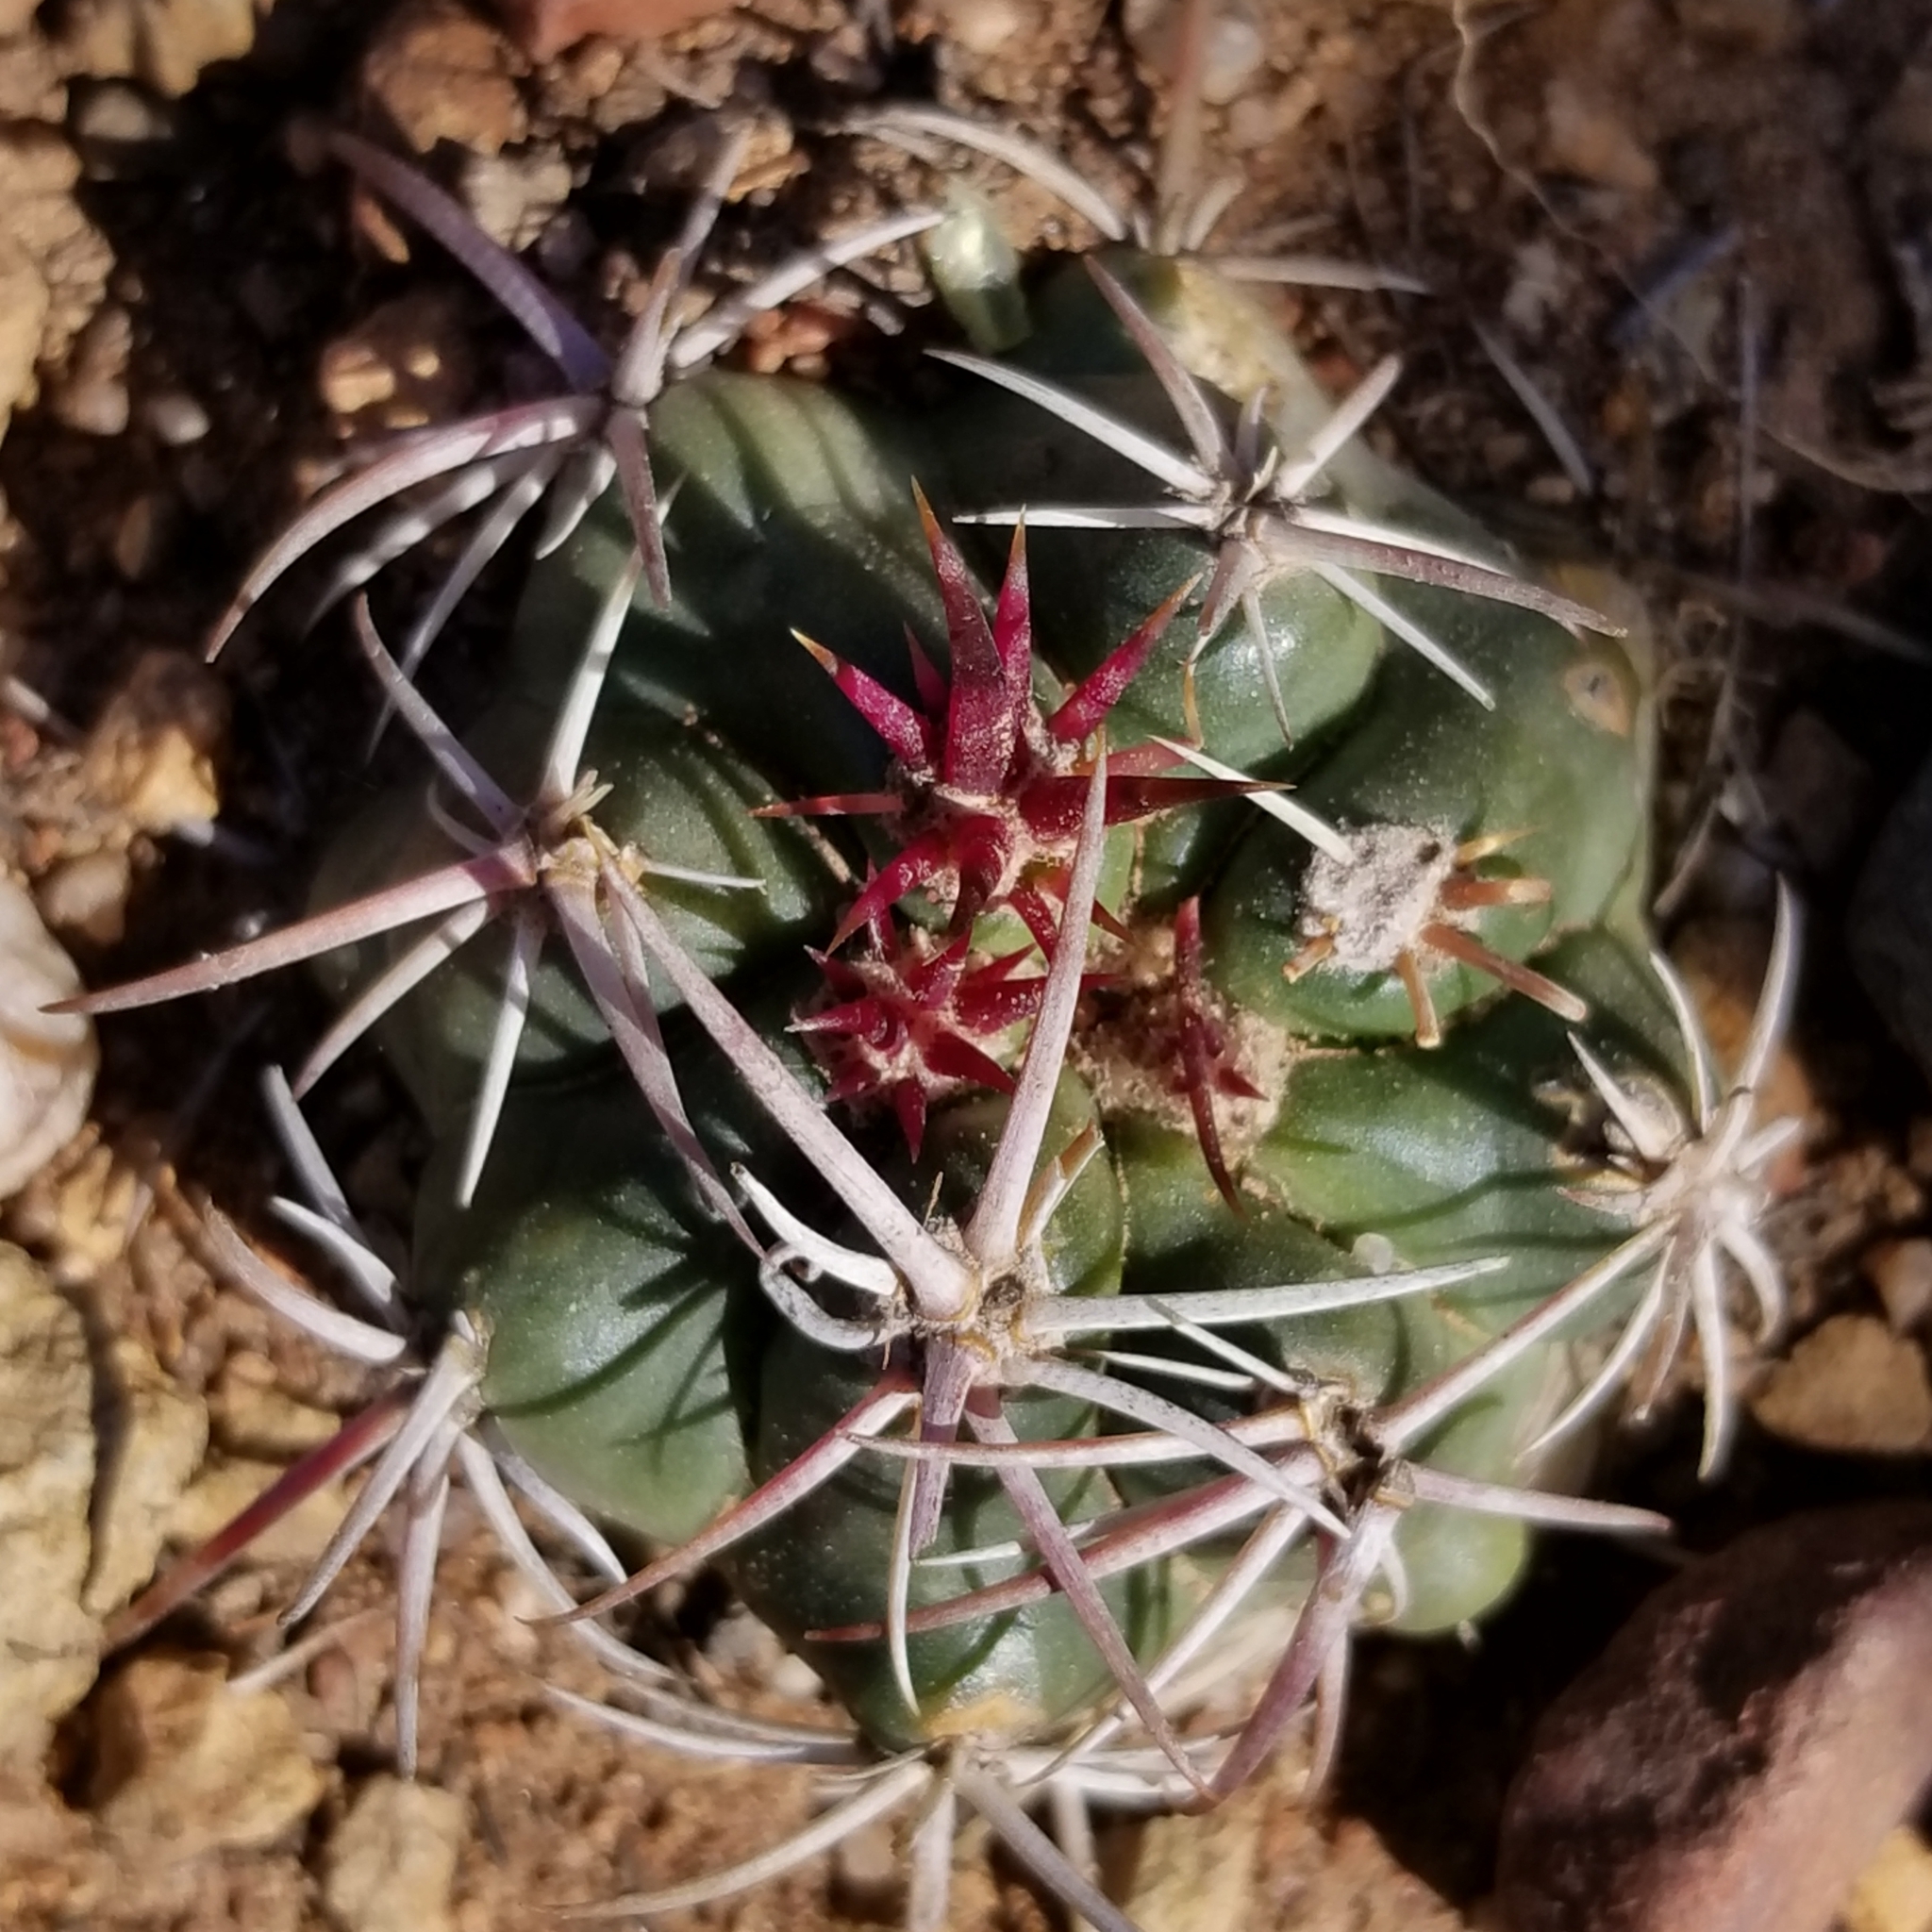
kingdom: Plantae
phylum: Tracheophyta
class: Magnoliopsida
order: Caryophyllales
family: Cactaceae
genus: Ferocactus
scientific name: Ferocactus viridescens
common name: San diego barrel cactus
